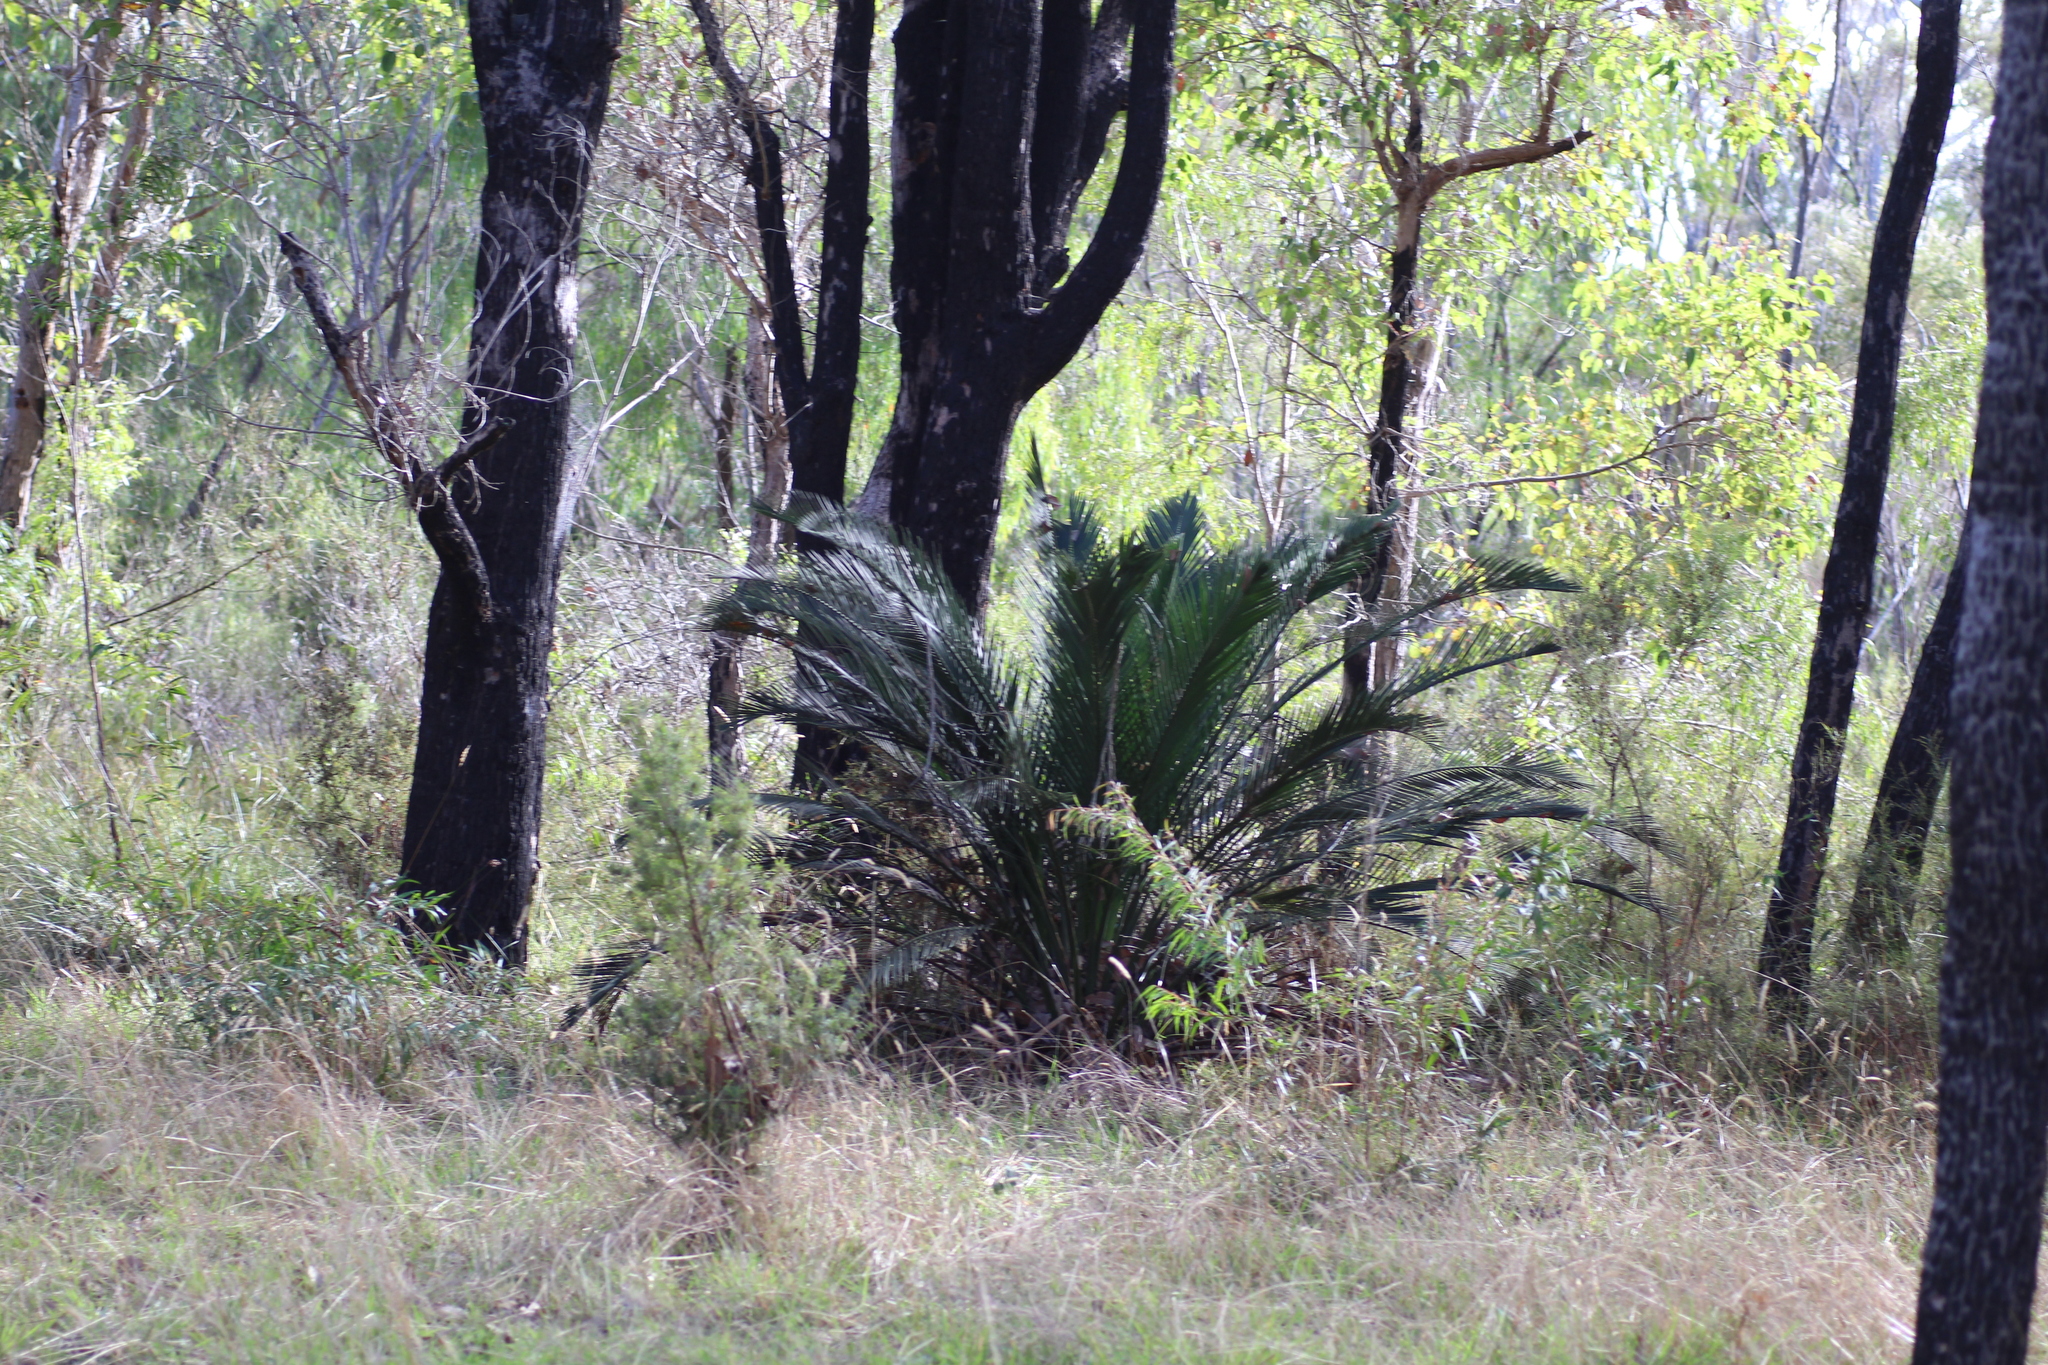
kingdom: Plantae
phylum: Tracheophyta
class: Cycadopsida
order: Cycadales
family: Zamiaceae
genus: Macrozamia
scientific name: Macrozamia riedlei
